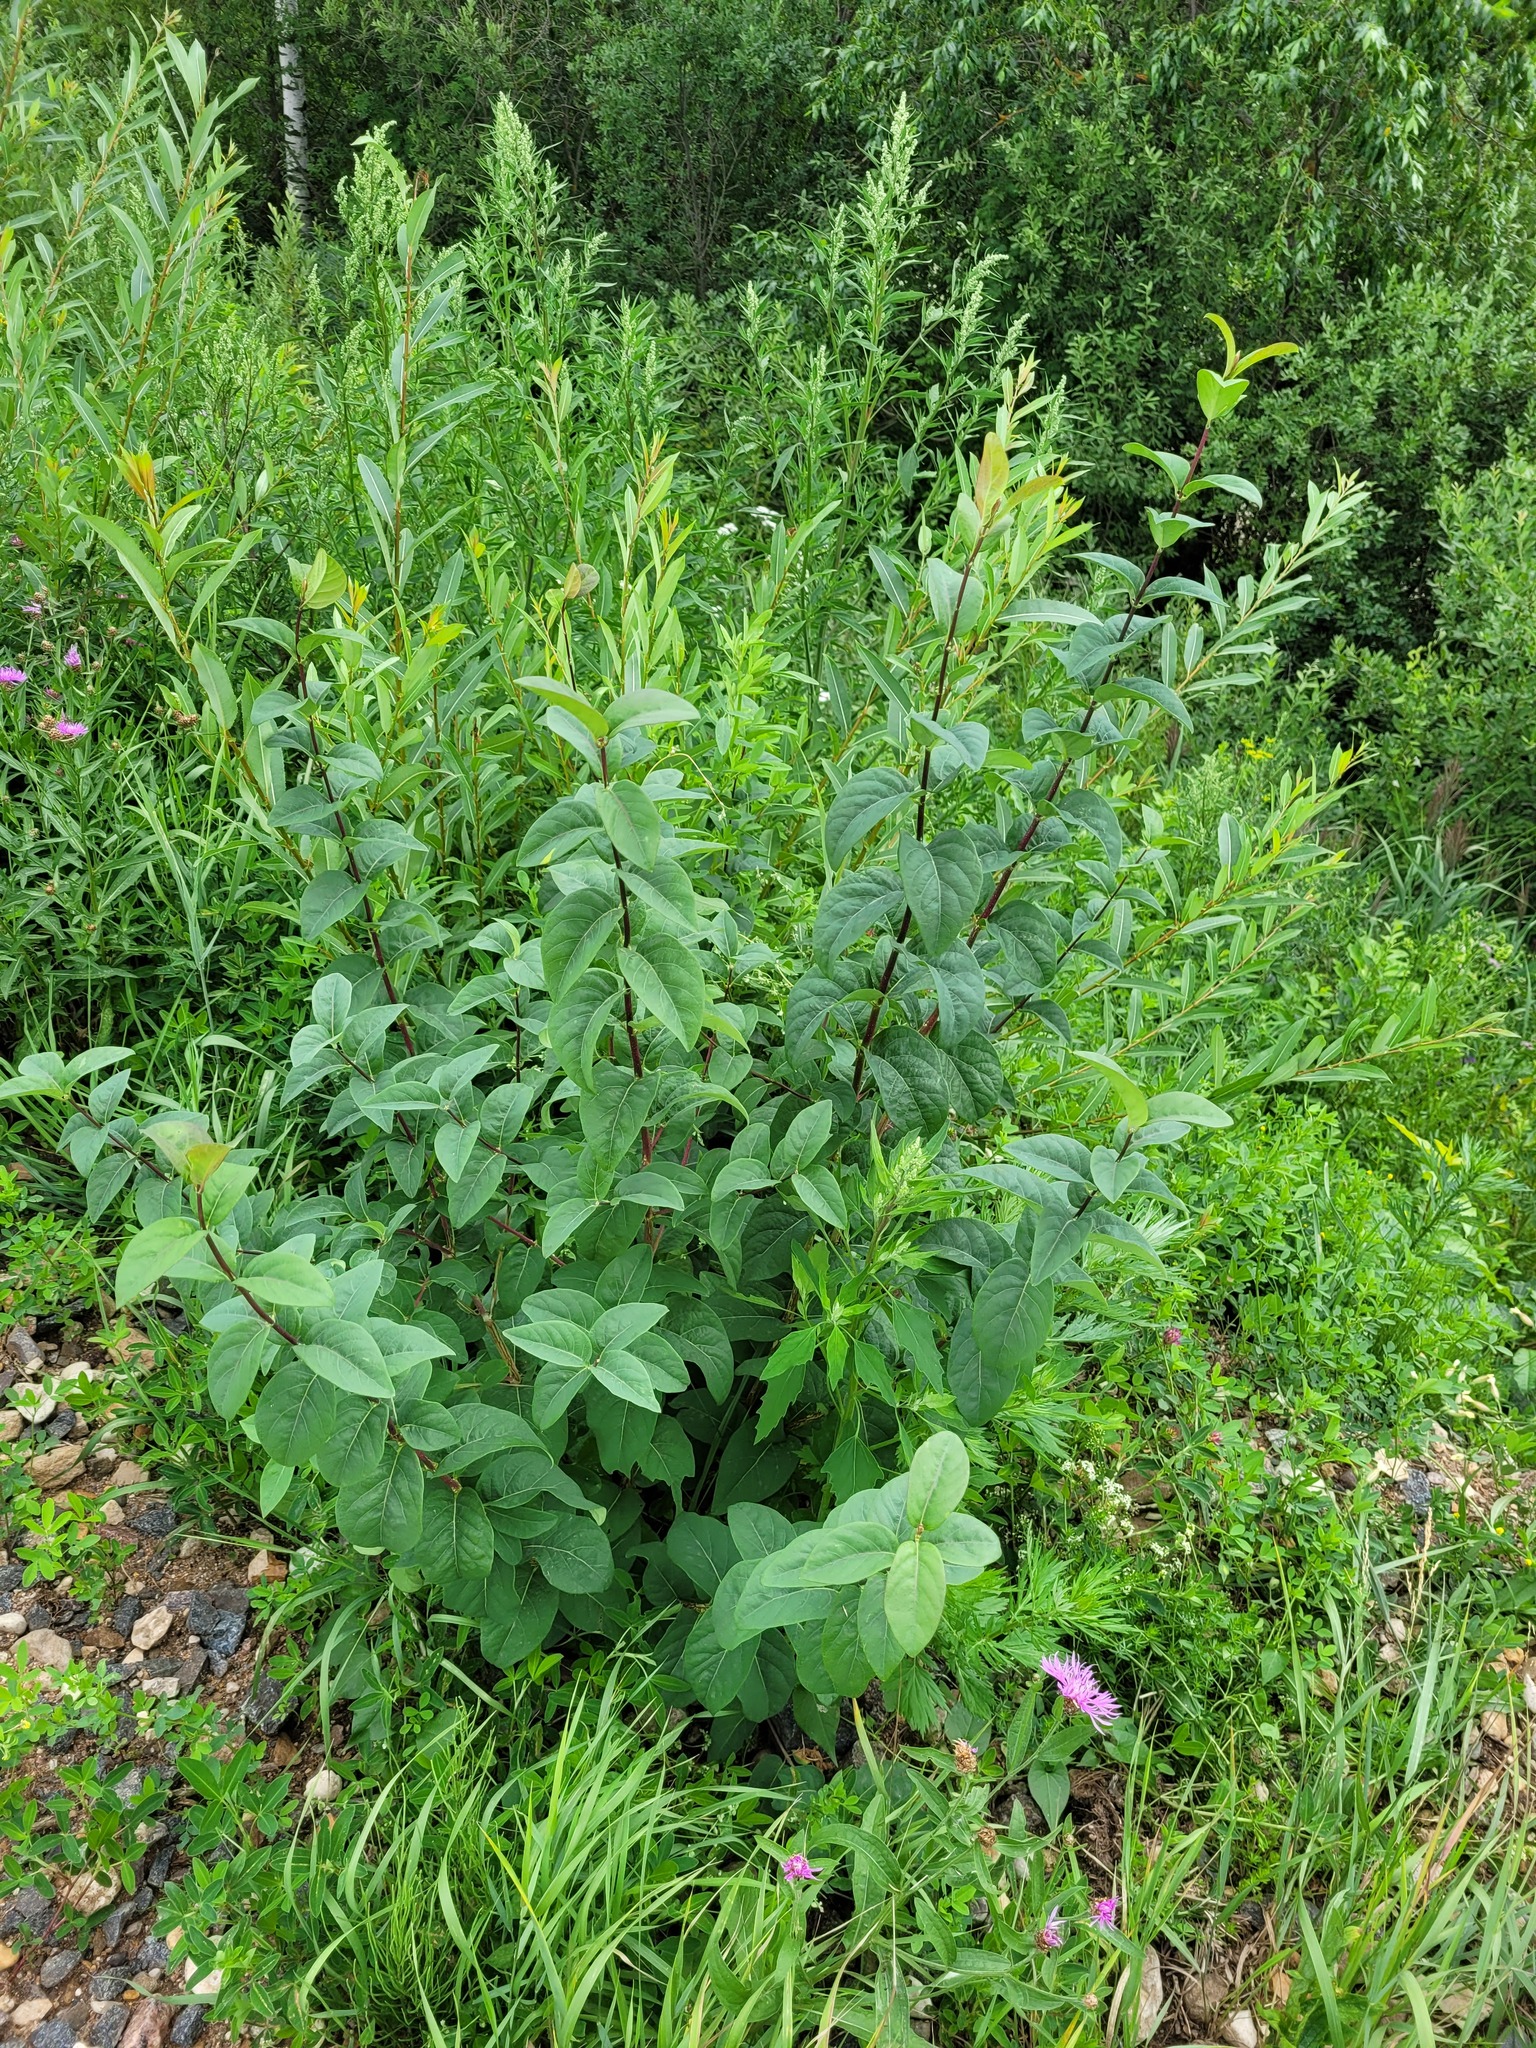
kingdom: Plantae
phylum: Tracheophyta
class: Magnoliopsida
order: Dipsacales
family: Caprifoliaceae
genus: Lonicera
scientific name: Lonicera tatarica
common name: Tatarian honeysuckle
